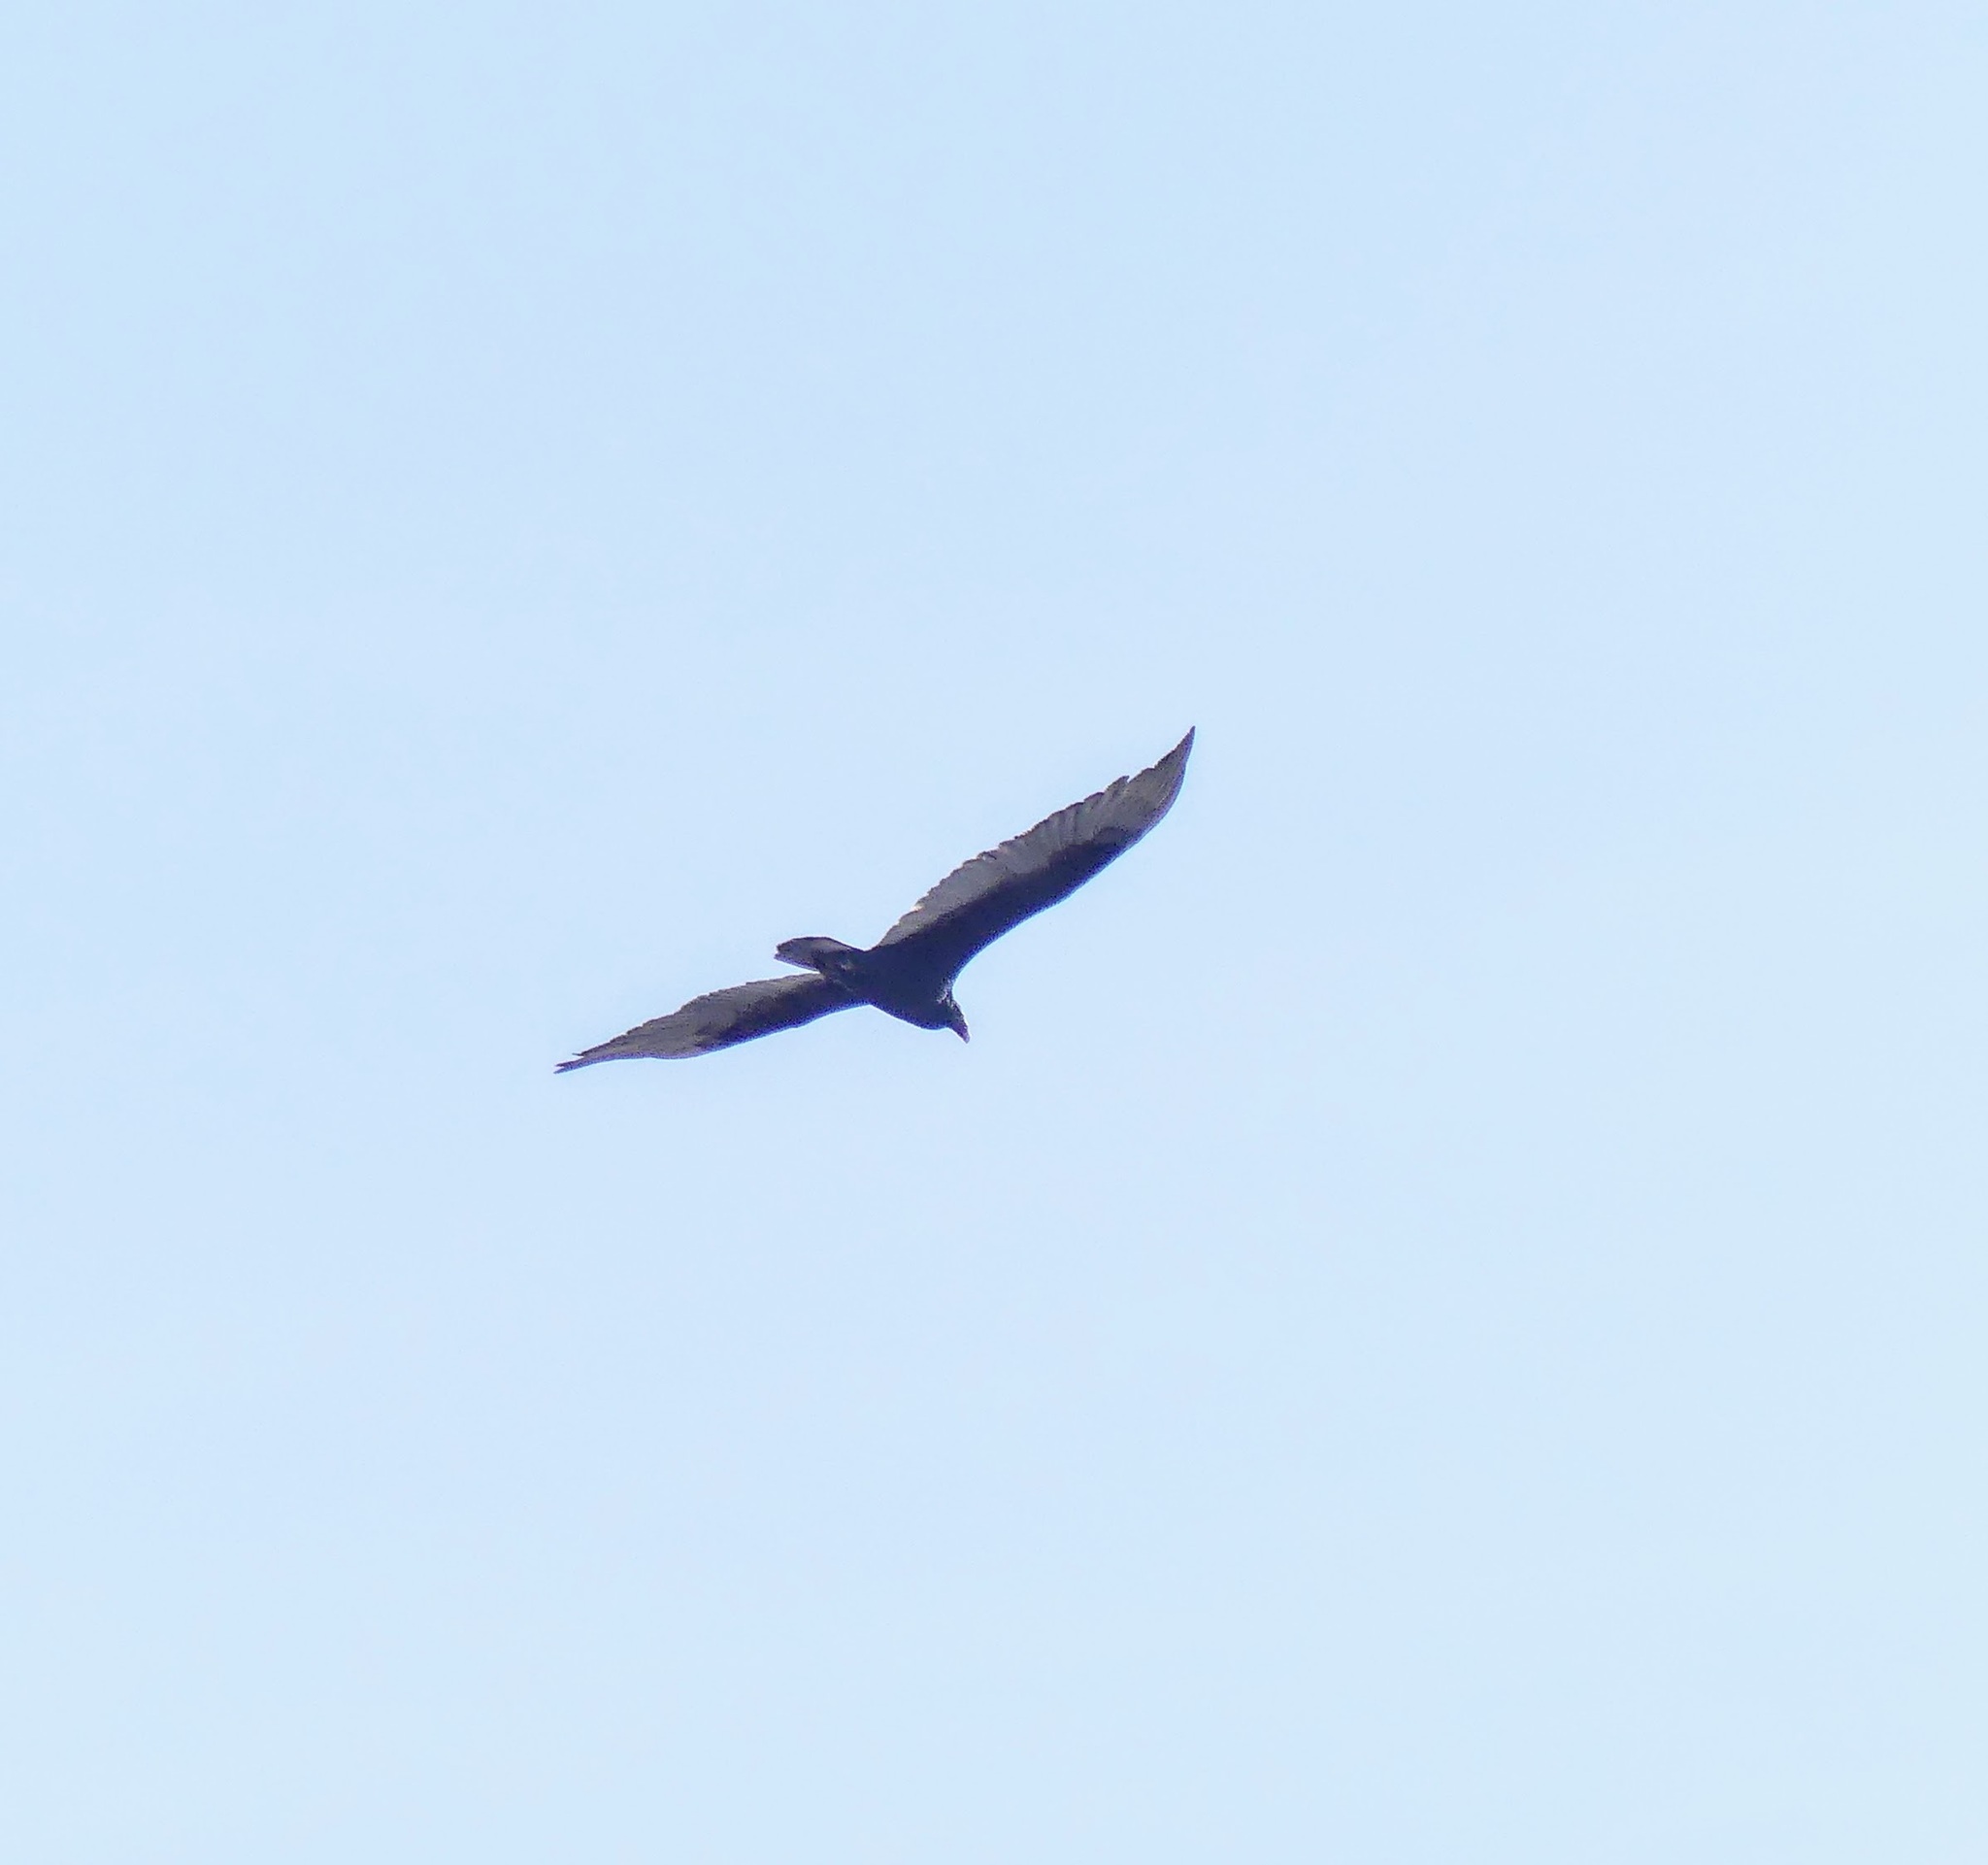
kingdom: Animalia
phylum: Chordata
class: Aves
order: Accipitriformes
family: Cathartidae
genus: Cathartes
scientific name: Cathartes aura
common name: Turkey vulture
